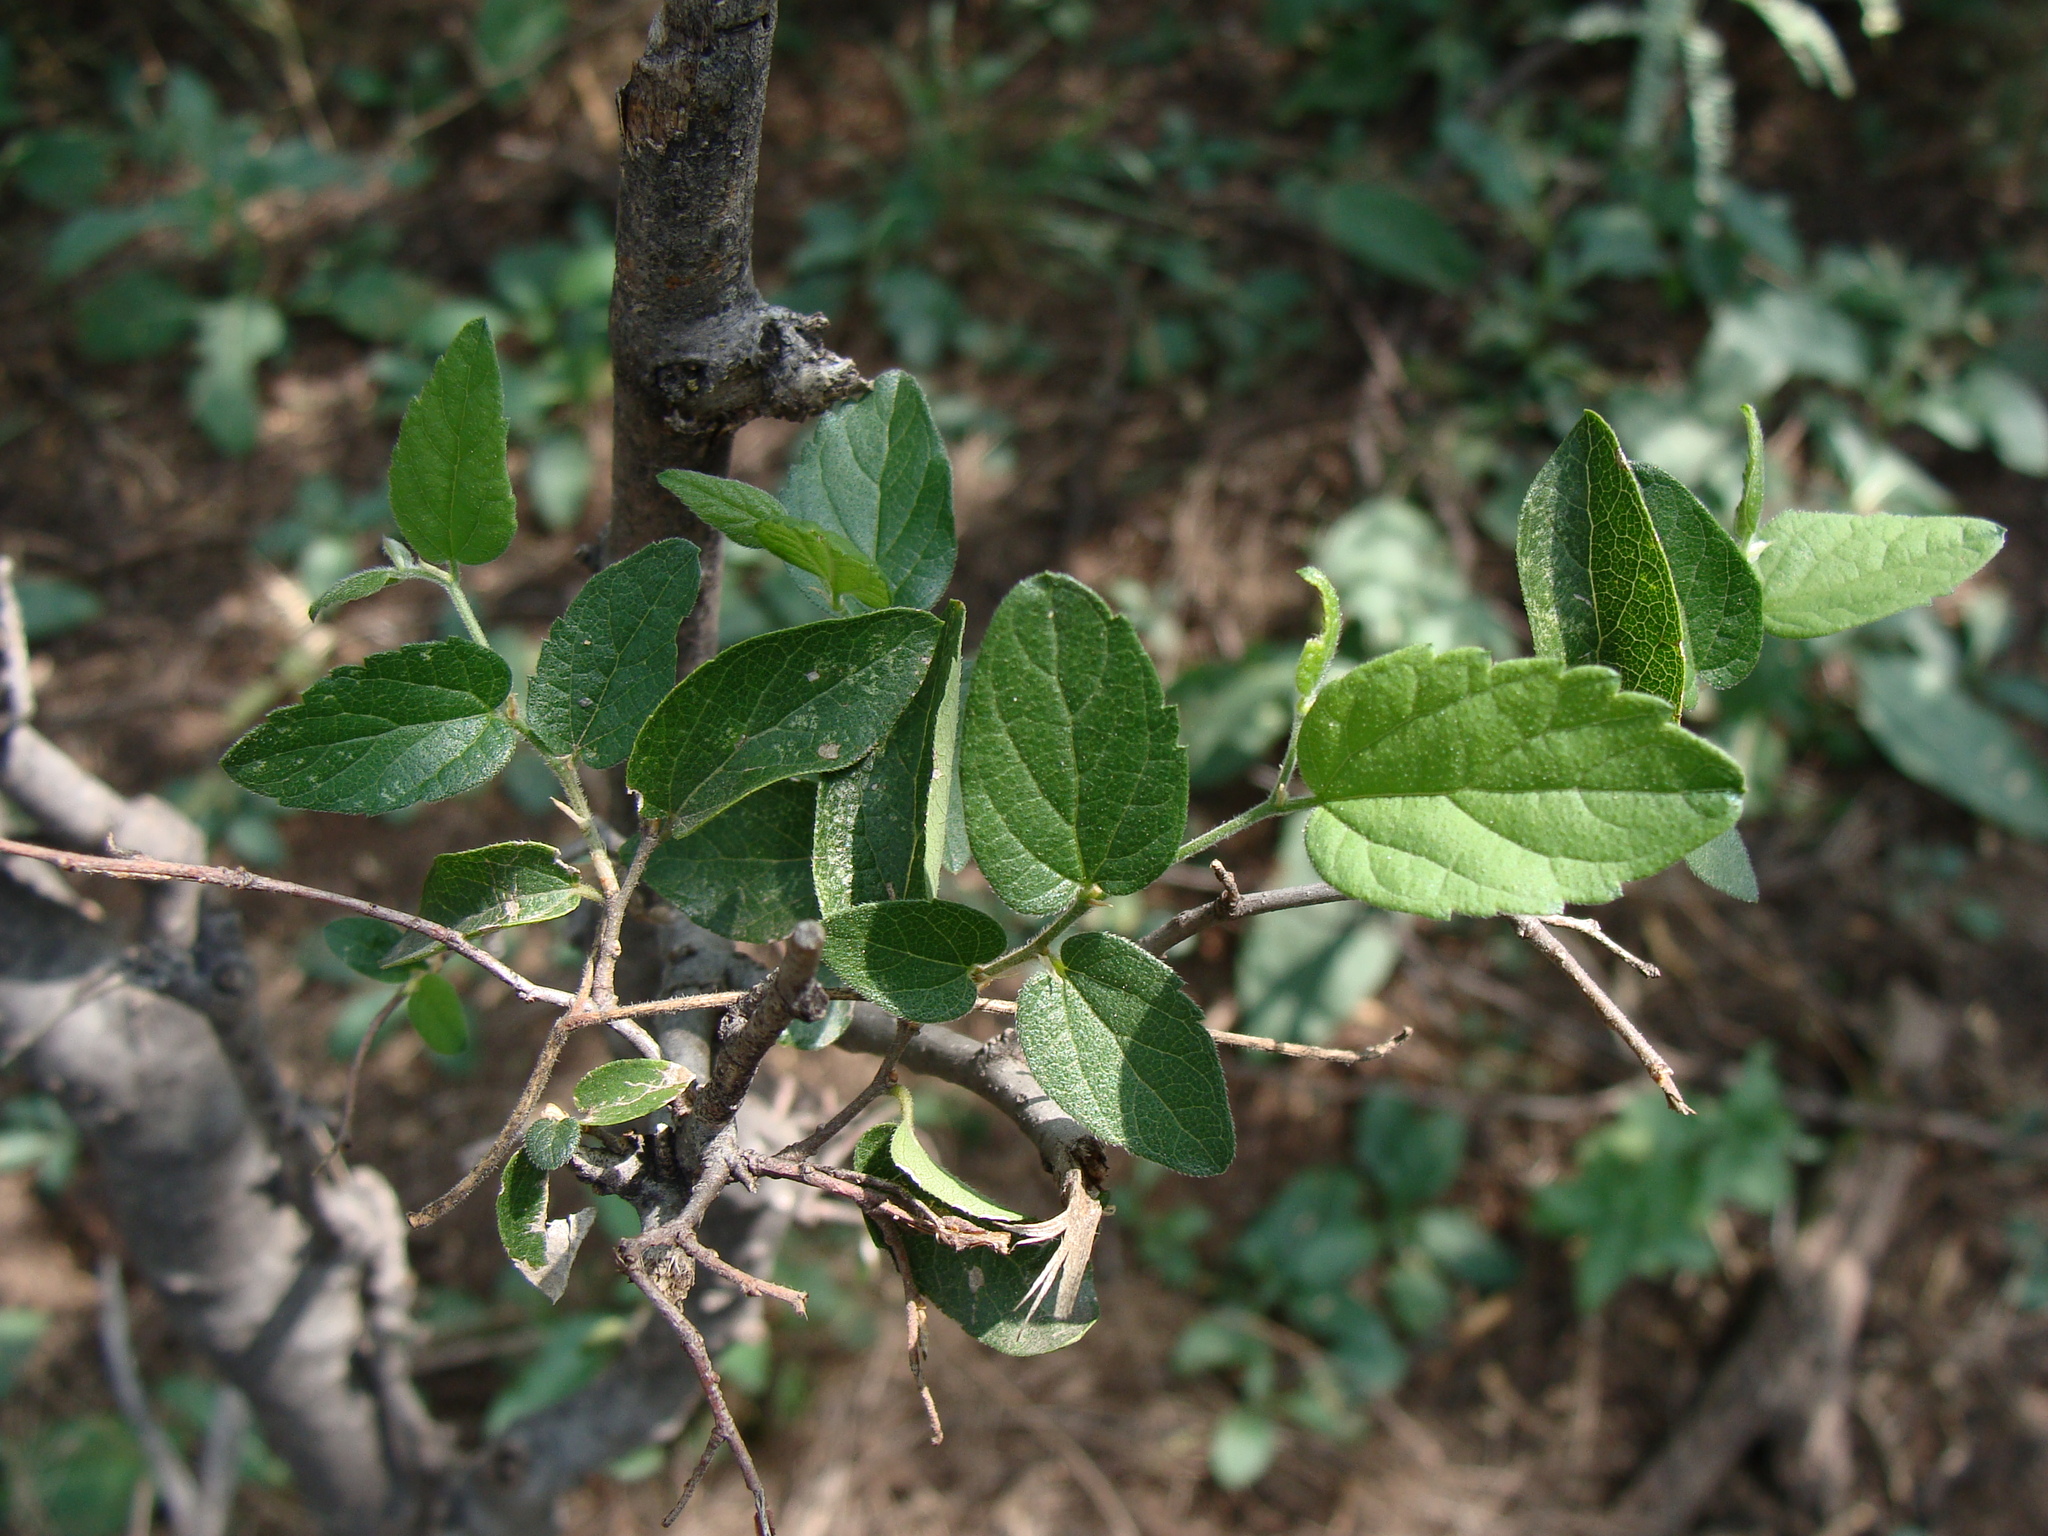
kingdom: Plantae
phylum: Tracheophyta
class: Magnoliopsida
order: Rosales
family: Cannabaceae
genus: Celtis
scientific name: Celtis reticulata
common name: Netleaf hackberry
